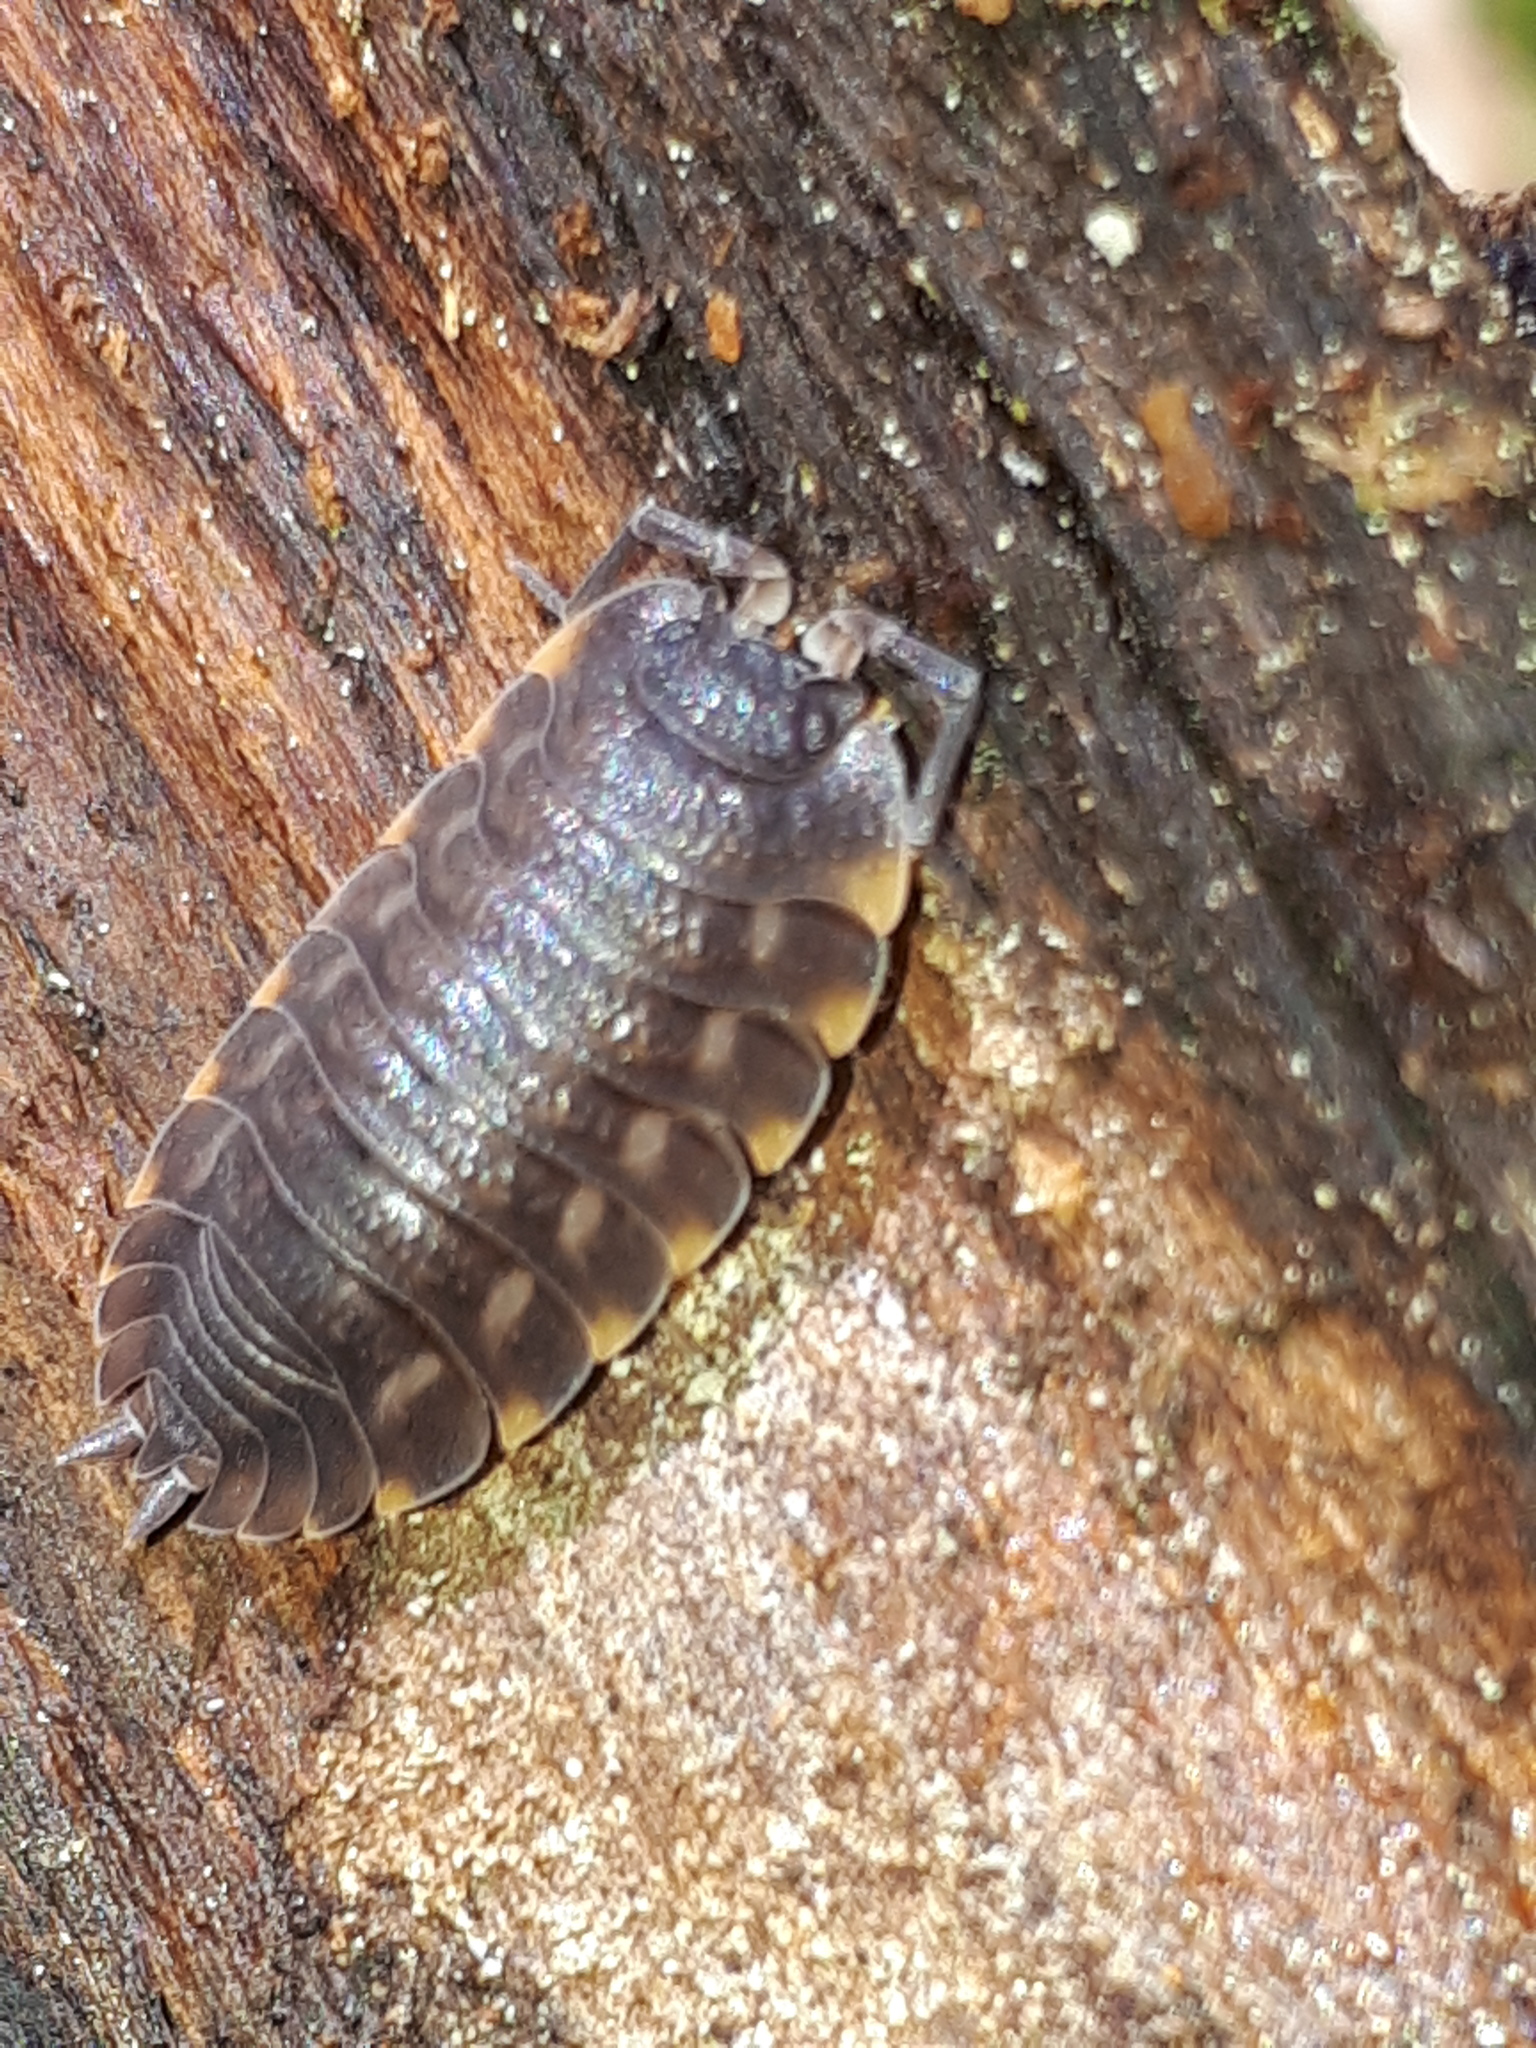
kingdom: Animalia
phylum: Arthropoda
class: Malacostraca
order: Isopoda
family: Trachelipodidae
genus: Trachelipus
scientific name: Trachelipus ratzeburgii
